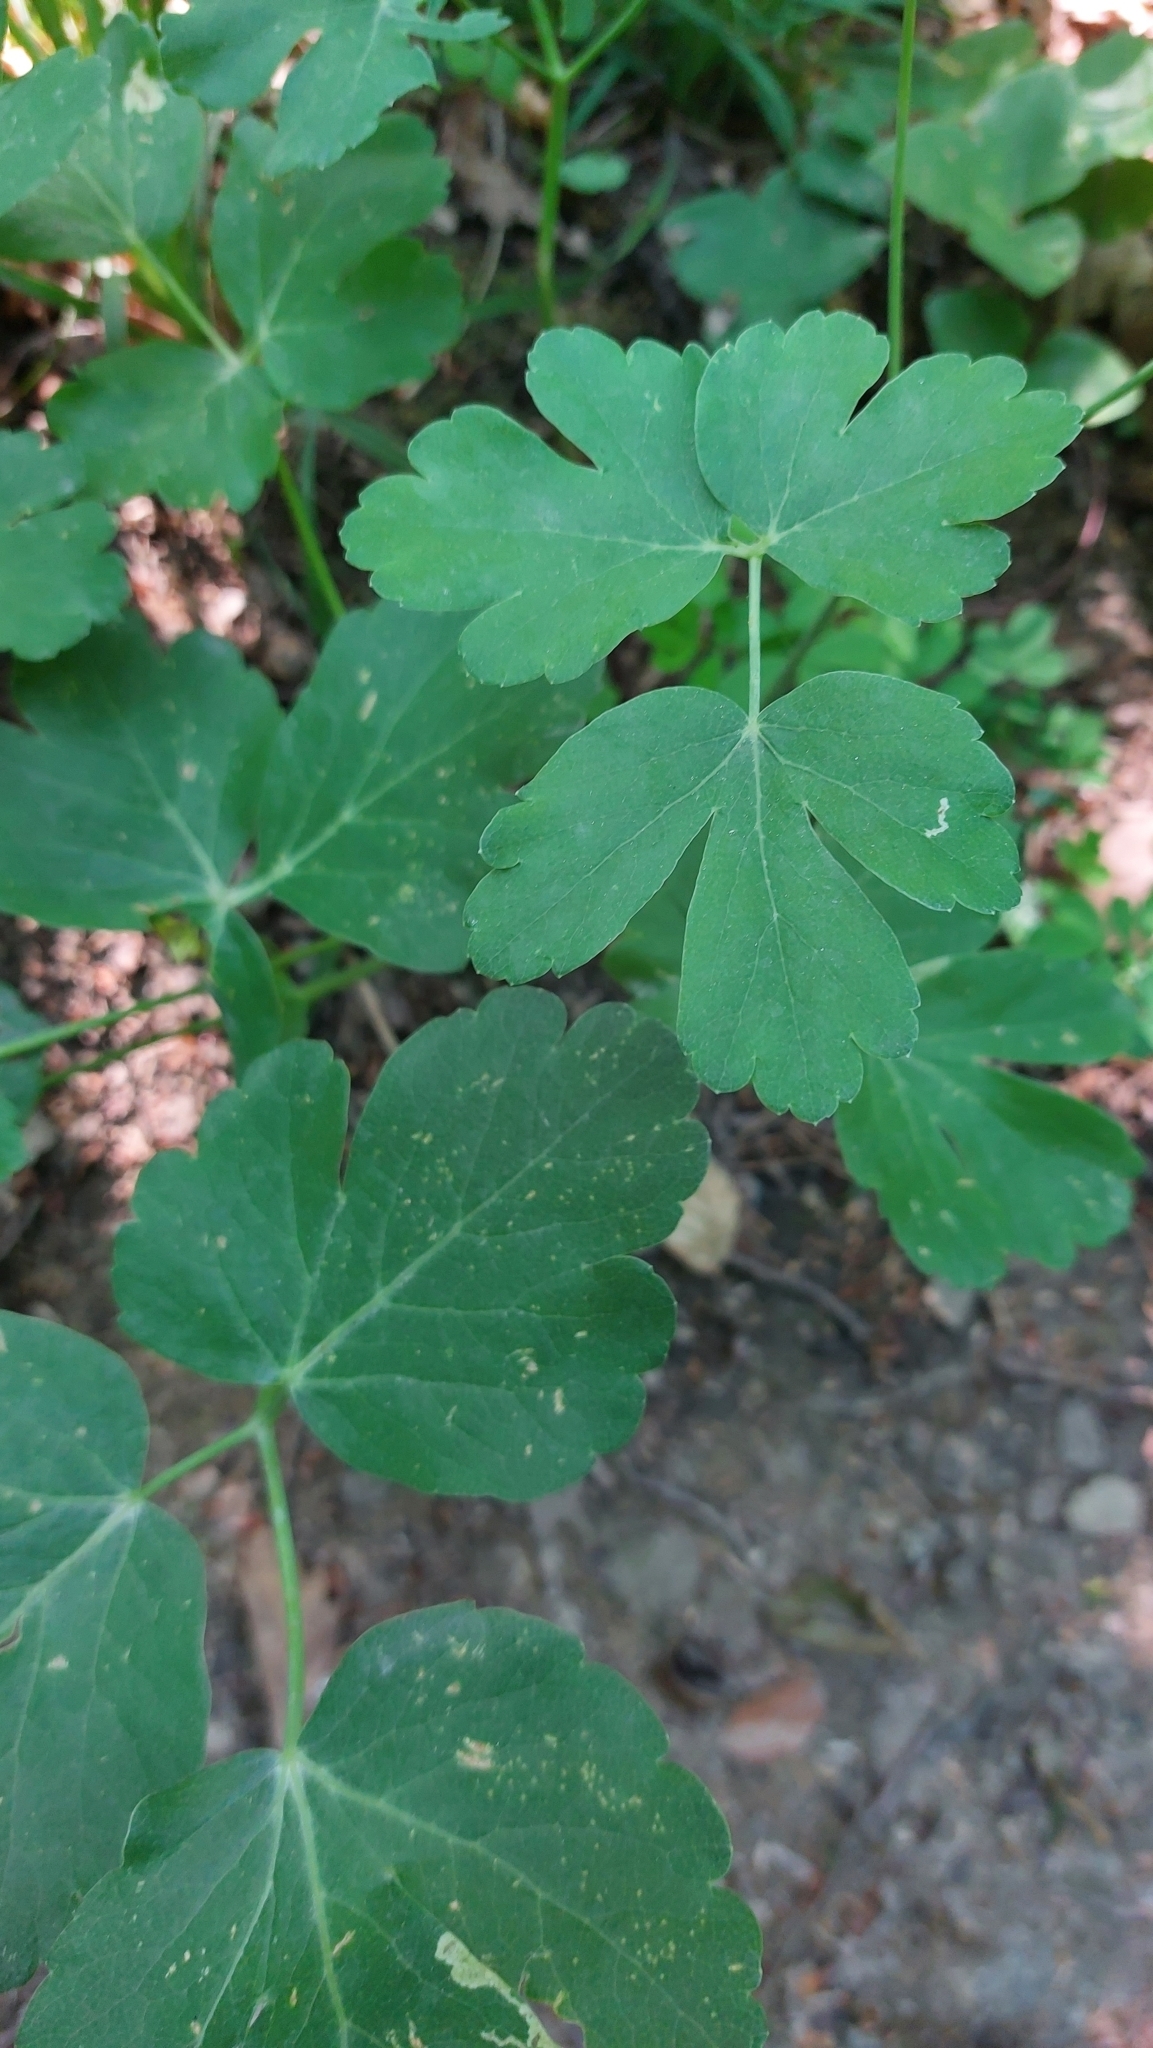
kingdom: Plantae
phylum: Tracheophyta
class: Magnoliopsida
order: Apiales
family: Apiaceae
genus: Laser
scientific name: Laser trilobum
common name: Laser
